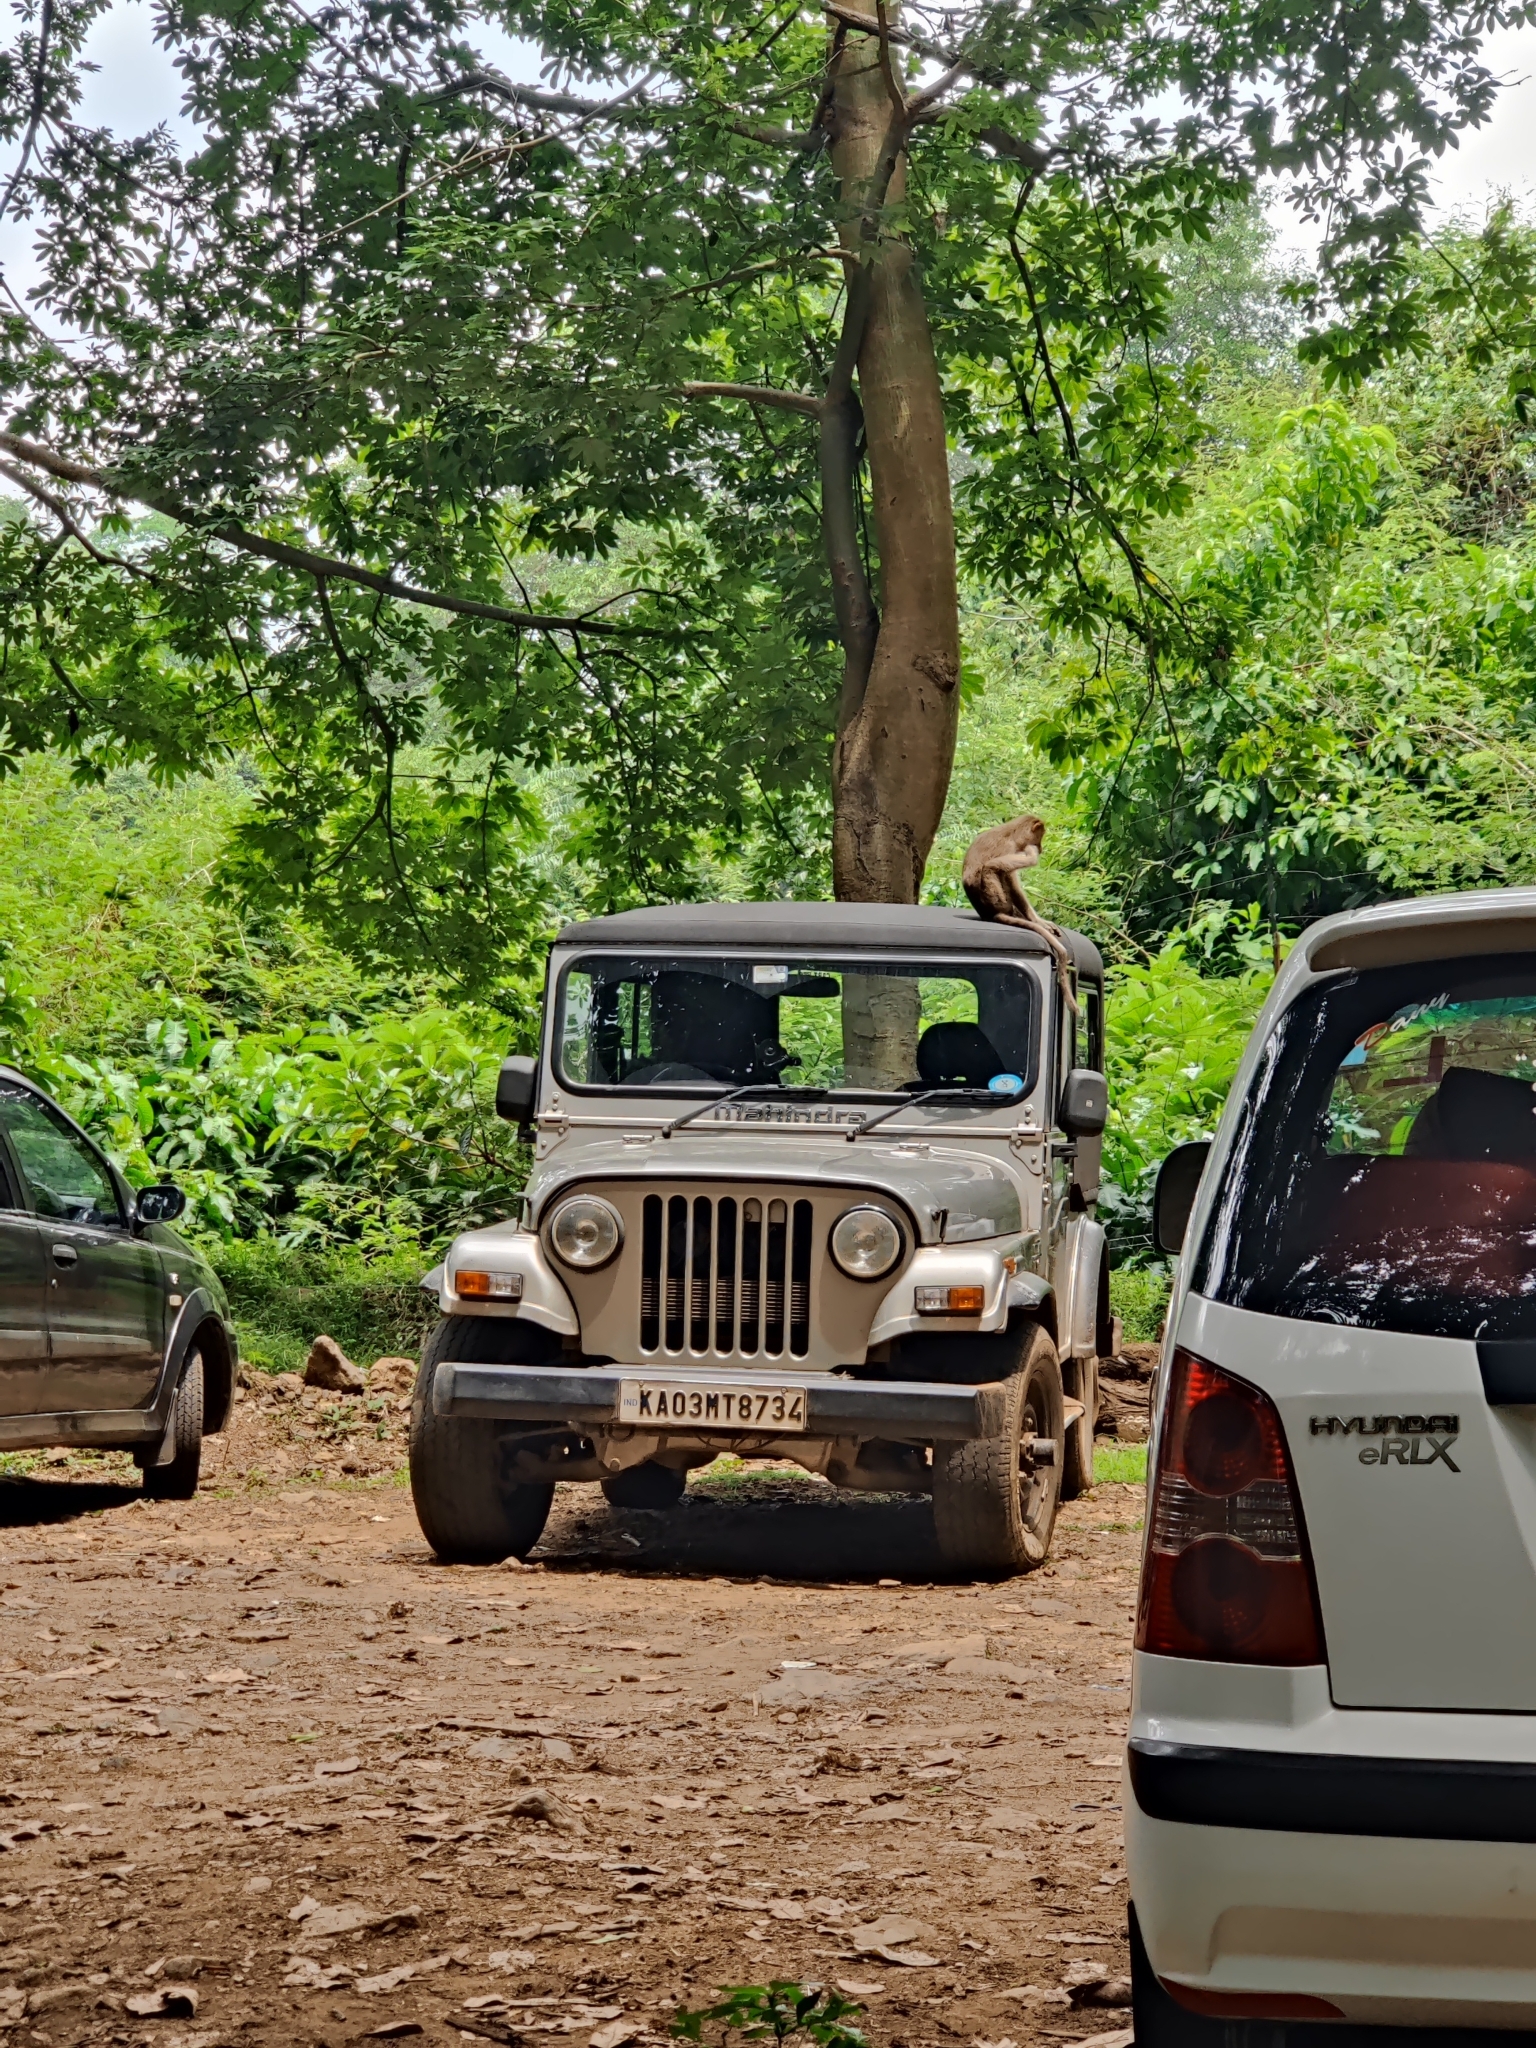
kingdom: Animalia
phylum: Chordata
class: Mammalia
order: Primates
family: Cercopithecidae
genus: Macaca
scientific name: Macaca radiata
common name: Bonnet macaque
